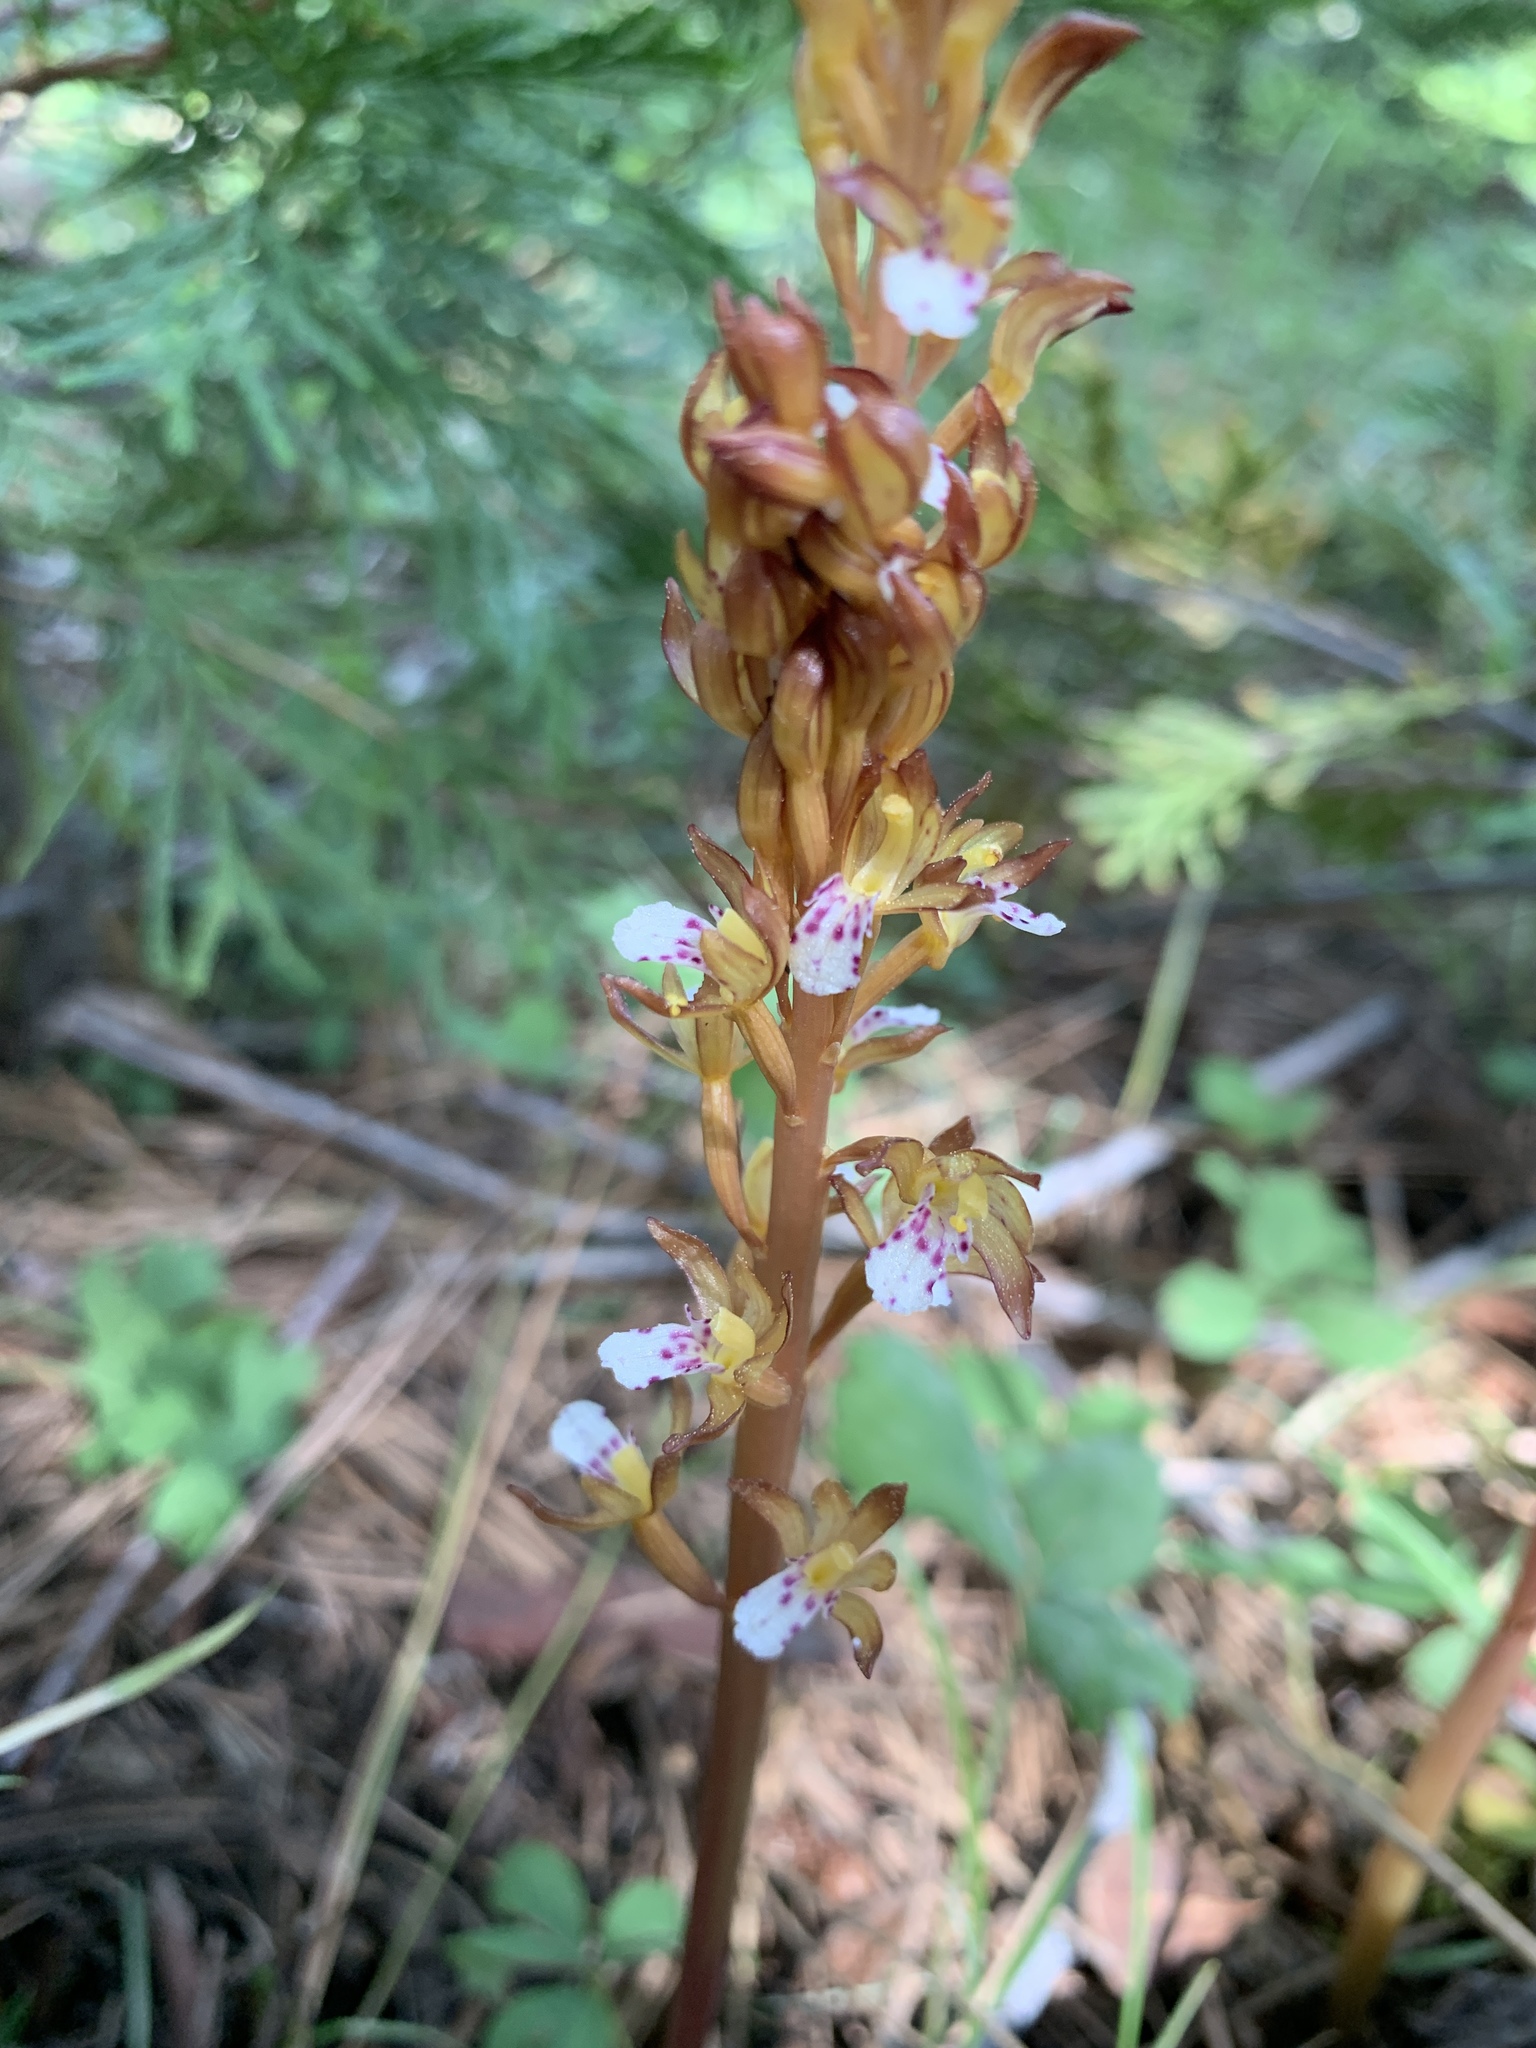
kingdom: Plantae
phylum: Tracheophyta
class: Liliopsida
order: Asparagales
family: Orchidaceae
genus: Corallorhiza
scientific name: Corallorhiza maculata
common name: Spotted coralroot
